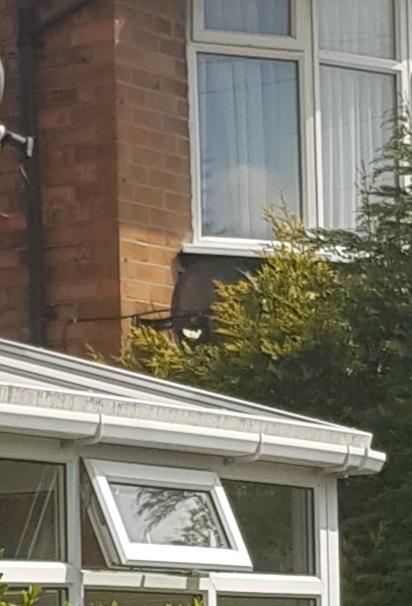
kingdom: Animalia
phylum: Arthropoda
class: Insecta
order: Lepidoptera
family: Pieridae
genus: Pieris
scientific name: Pieris
